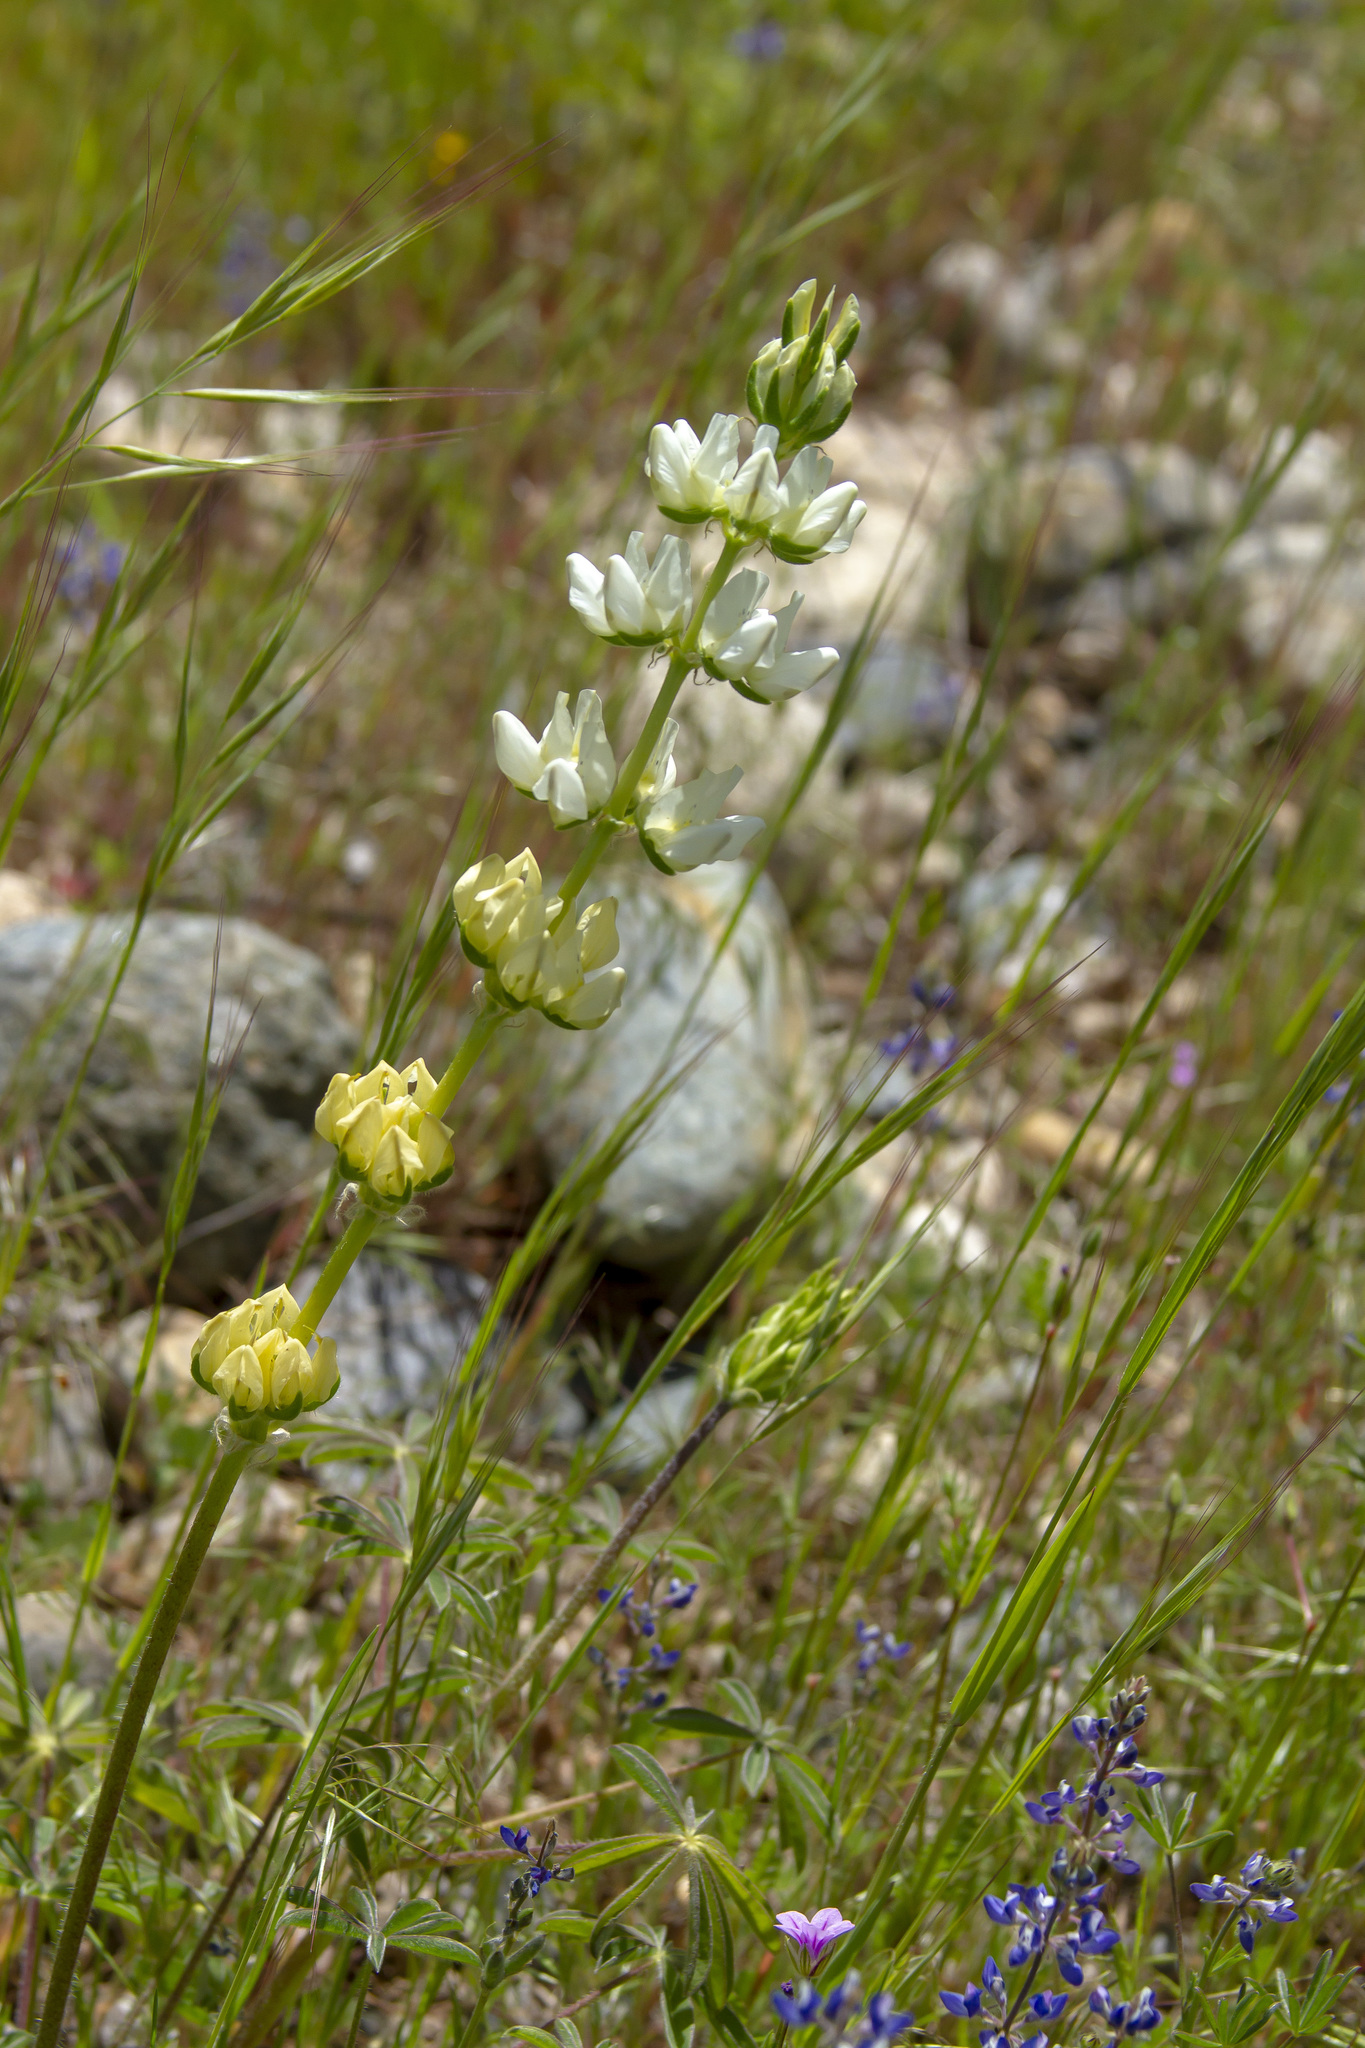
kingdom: Plantae
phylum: Tracheophyta
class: Magnoliopsida
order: Fabales
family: Fabaceae
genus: Lupinus
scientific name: Lupinus microcarpus
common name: Chick lupine
